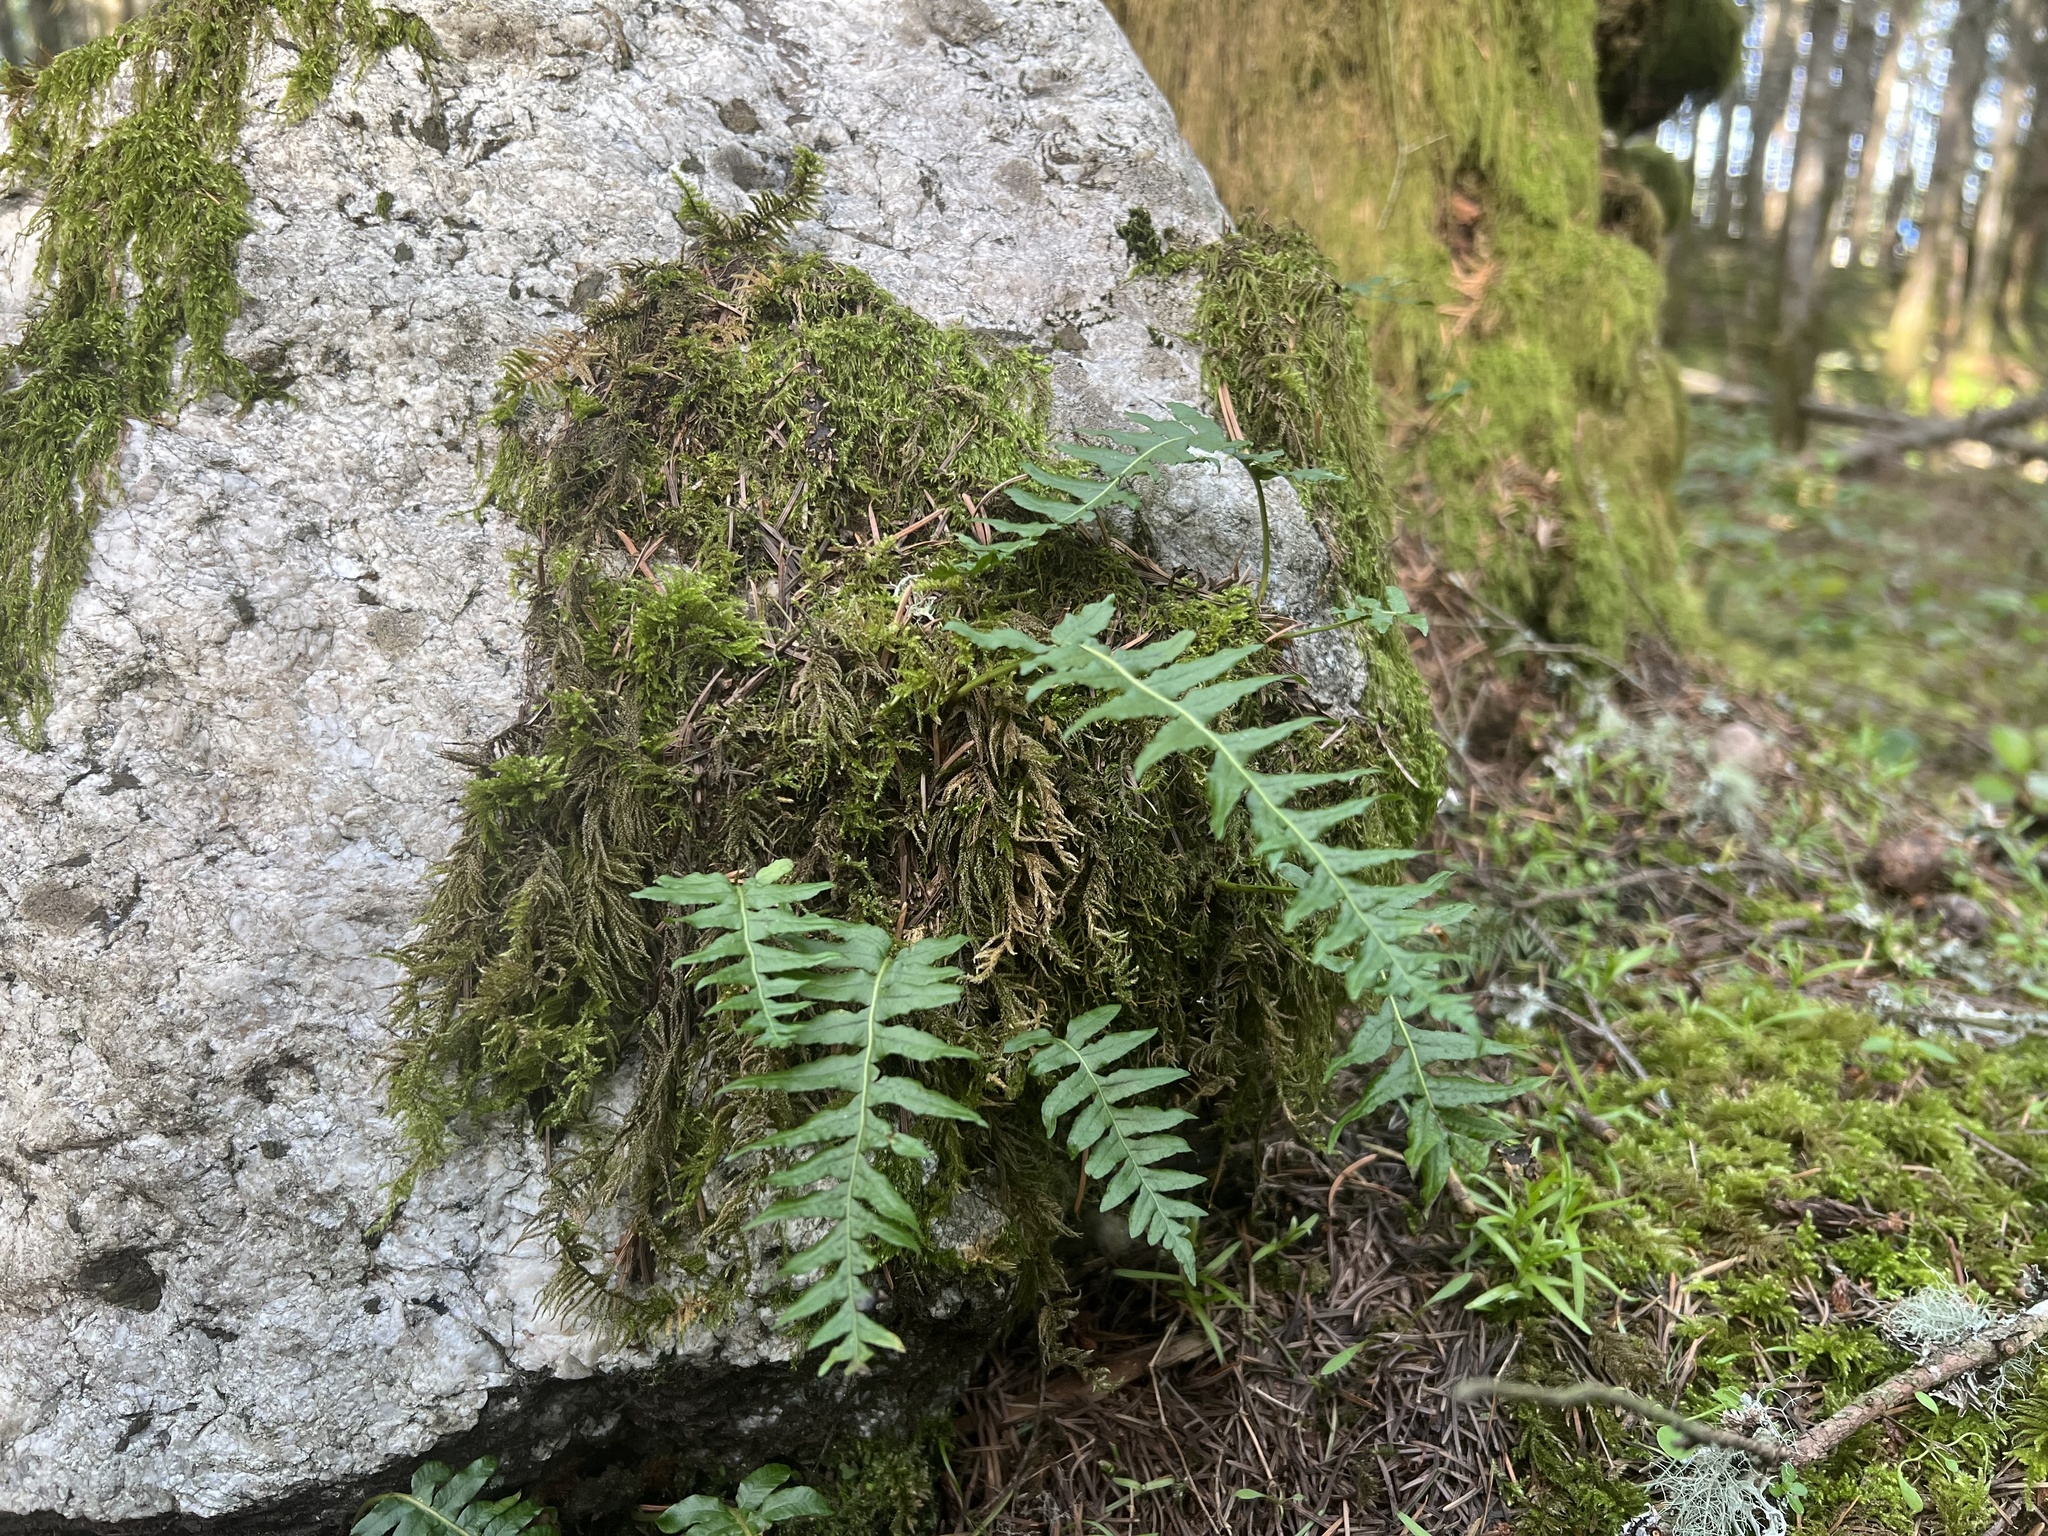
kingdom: Plantae
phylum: Tracheophyta
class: Polypodiopsida
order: Polypodiales
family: Polypodiaceae
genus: Polypodium
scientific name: Polypodium glycyrrhiza
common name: Licorice fern
